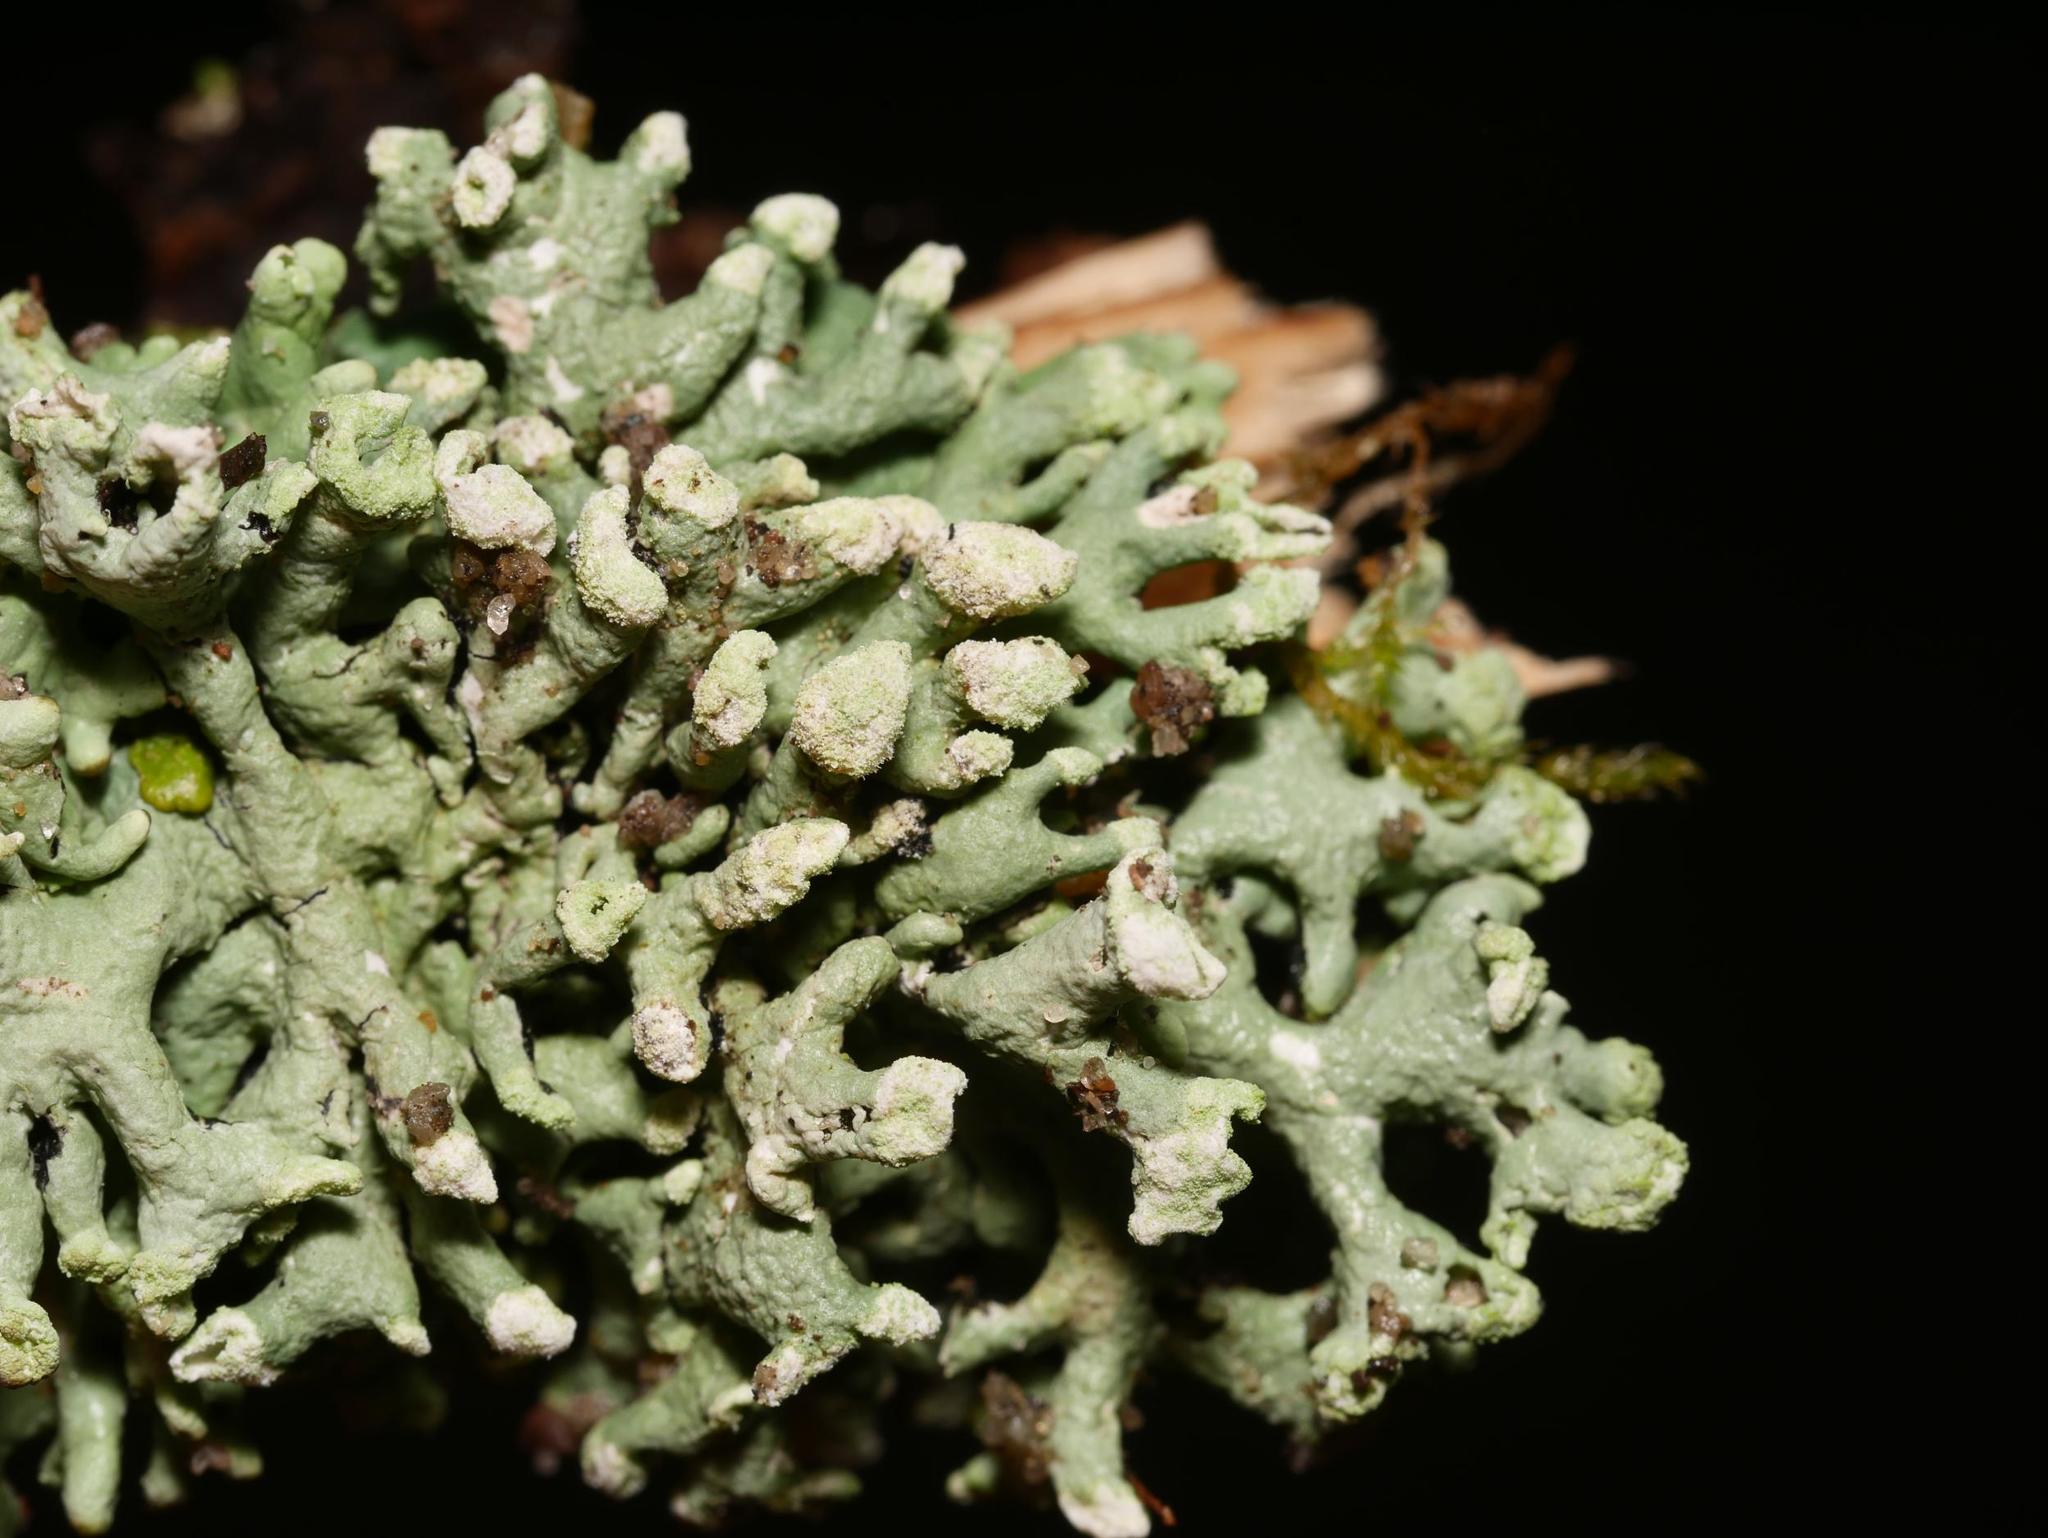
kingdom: Fungi
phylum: Ascomycota
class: Lecanoromycetes
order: Lecanorales
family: Parmeliaceae
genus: Hypogymnia
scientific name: Hypogymnia tubulosa
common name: Powder-headed tube lichen
